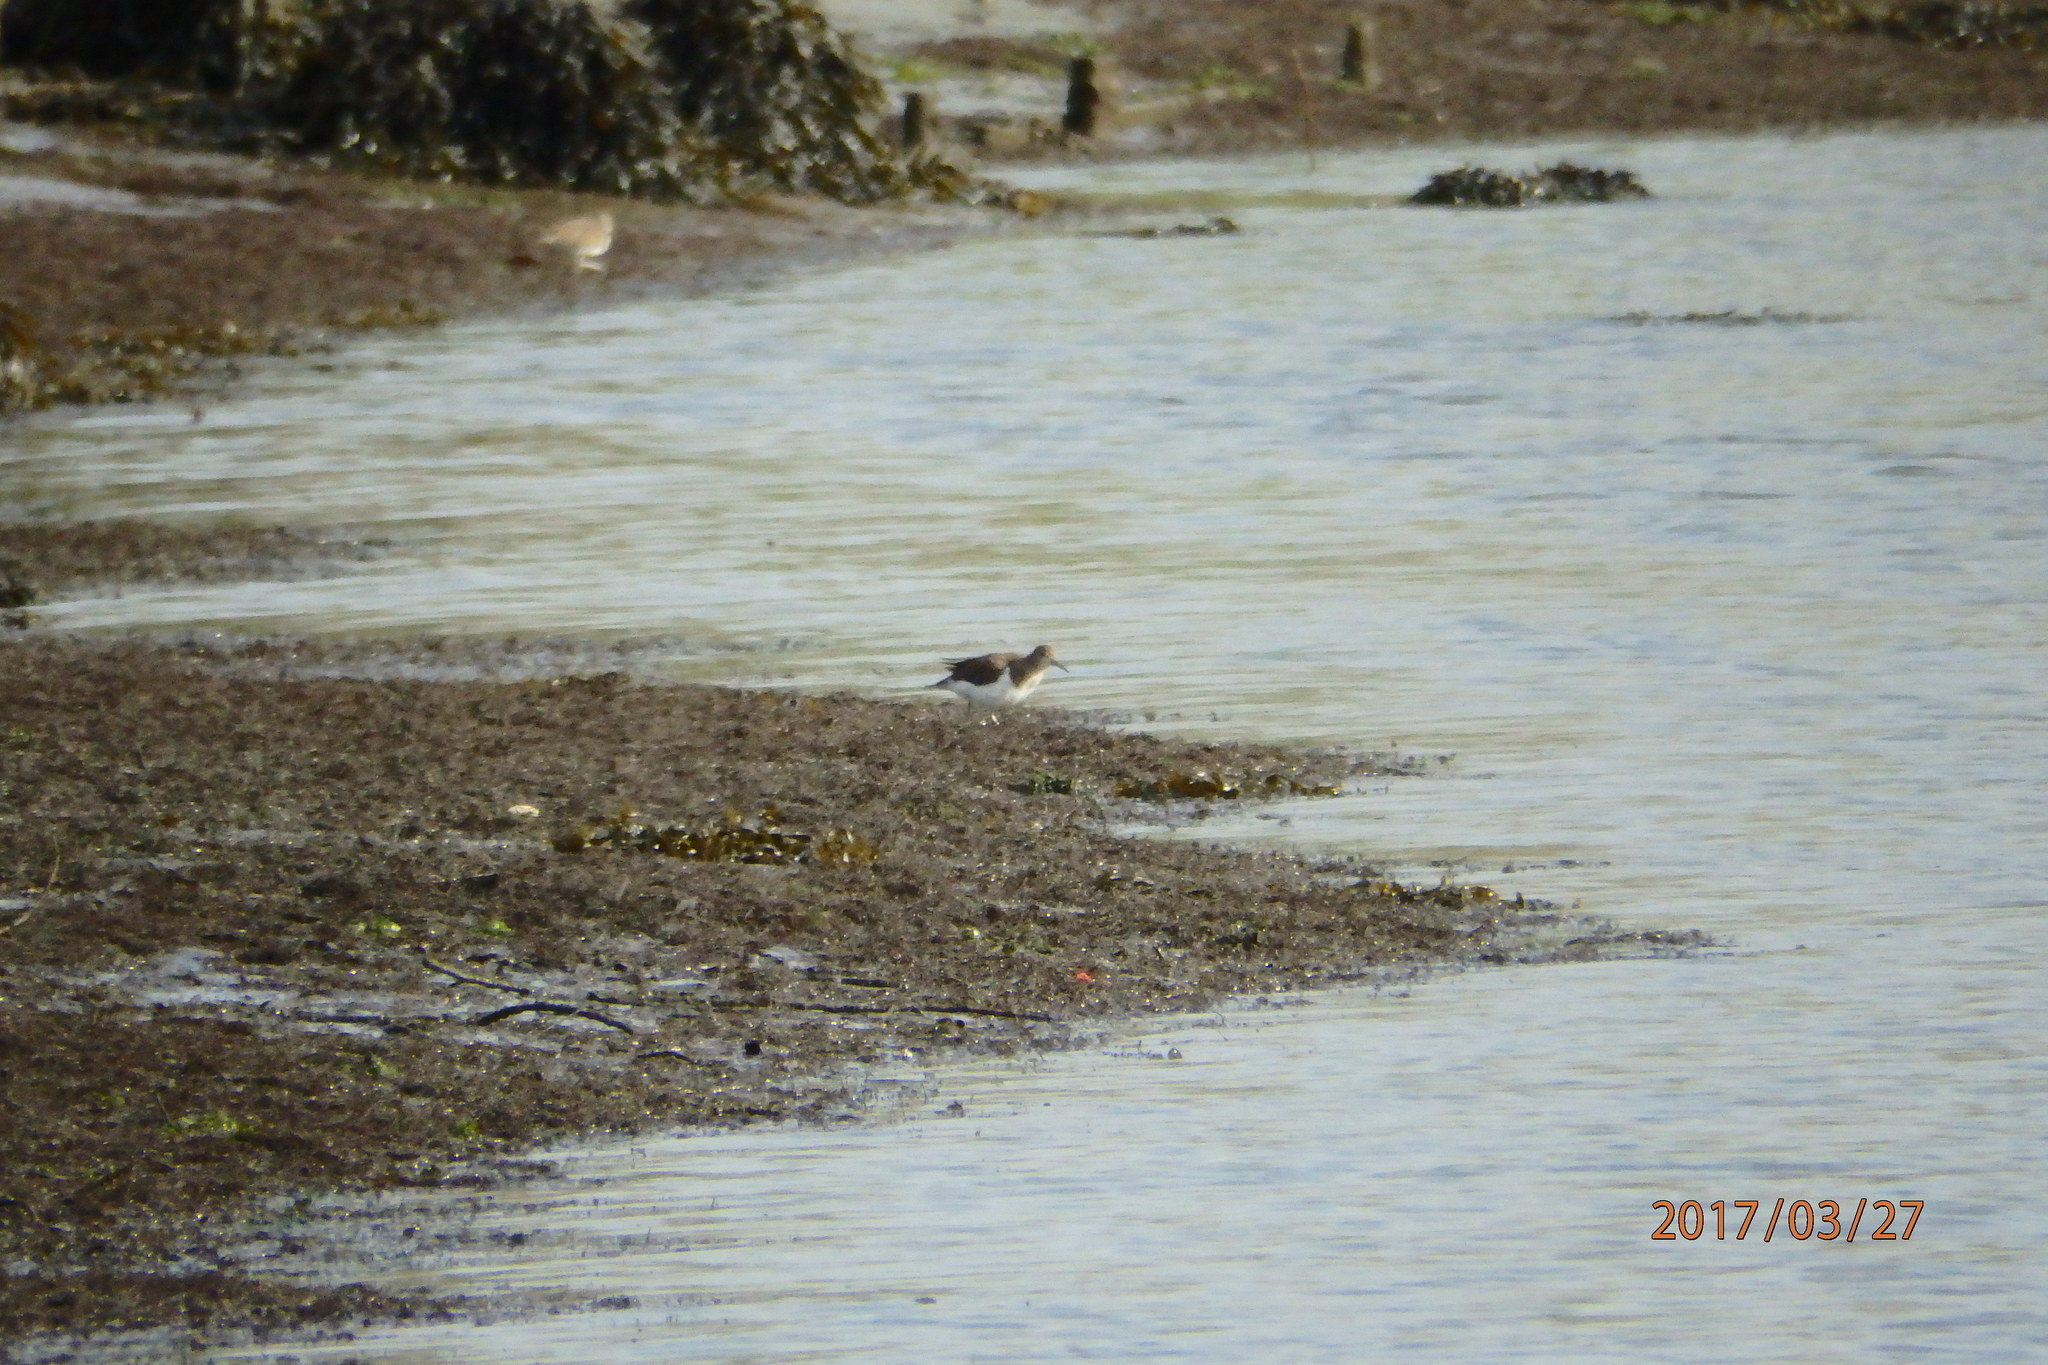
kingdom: Animalia
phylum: Chordata
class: Aves
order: Charadriiformes
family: Scolopacidae
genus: Actitis
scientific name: Actitis hypoleucos
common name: Common sandpiper
